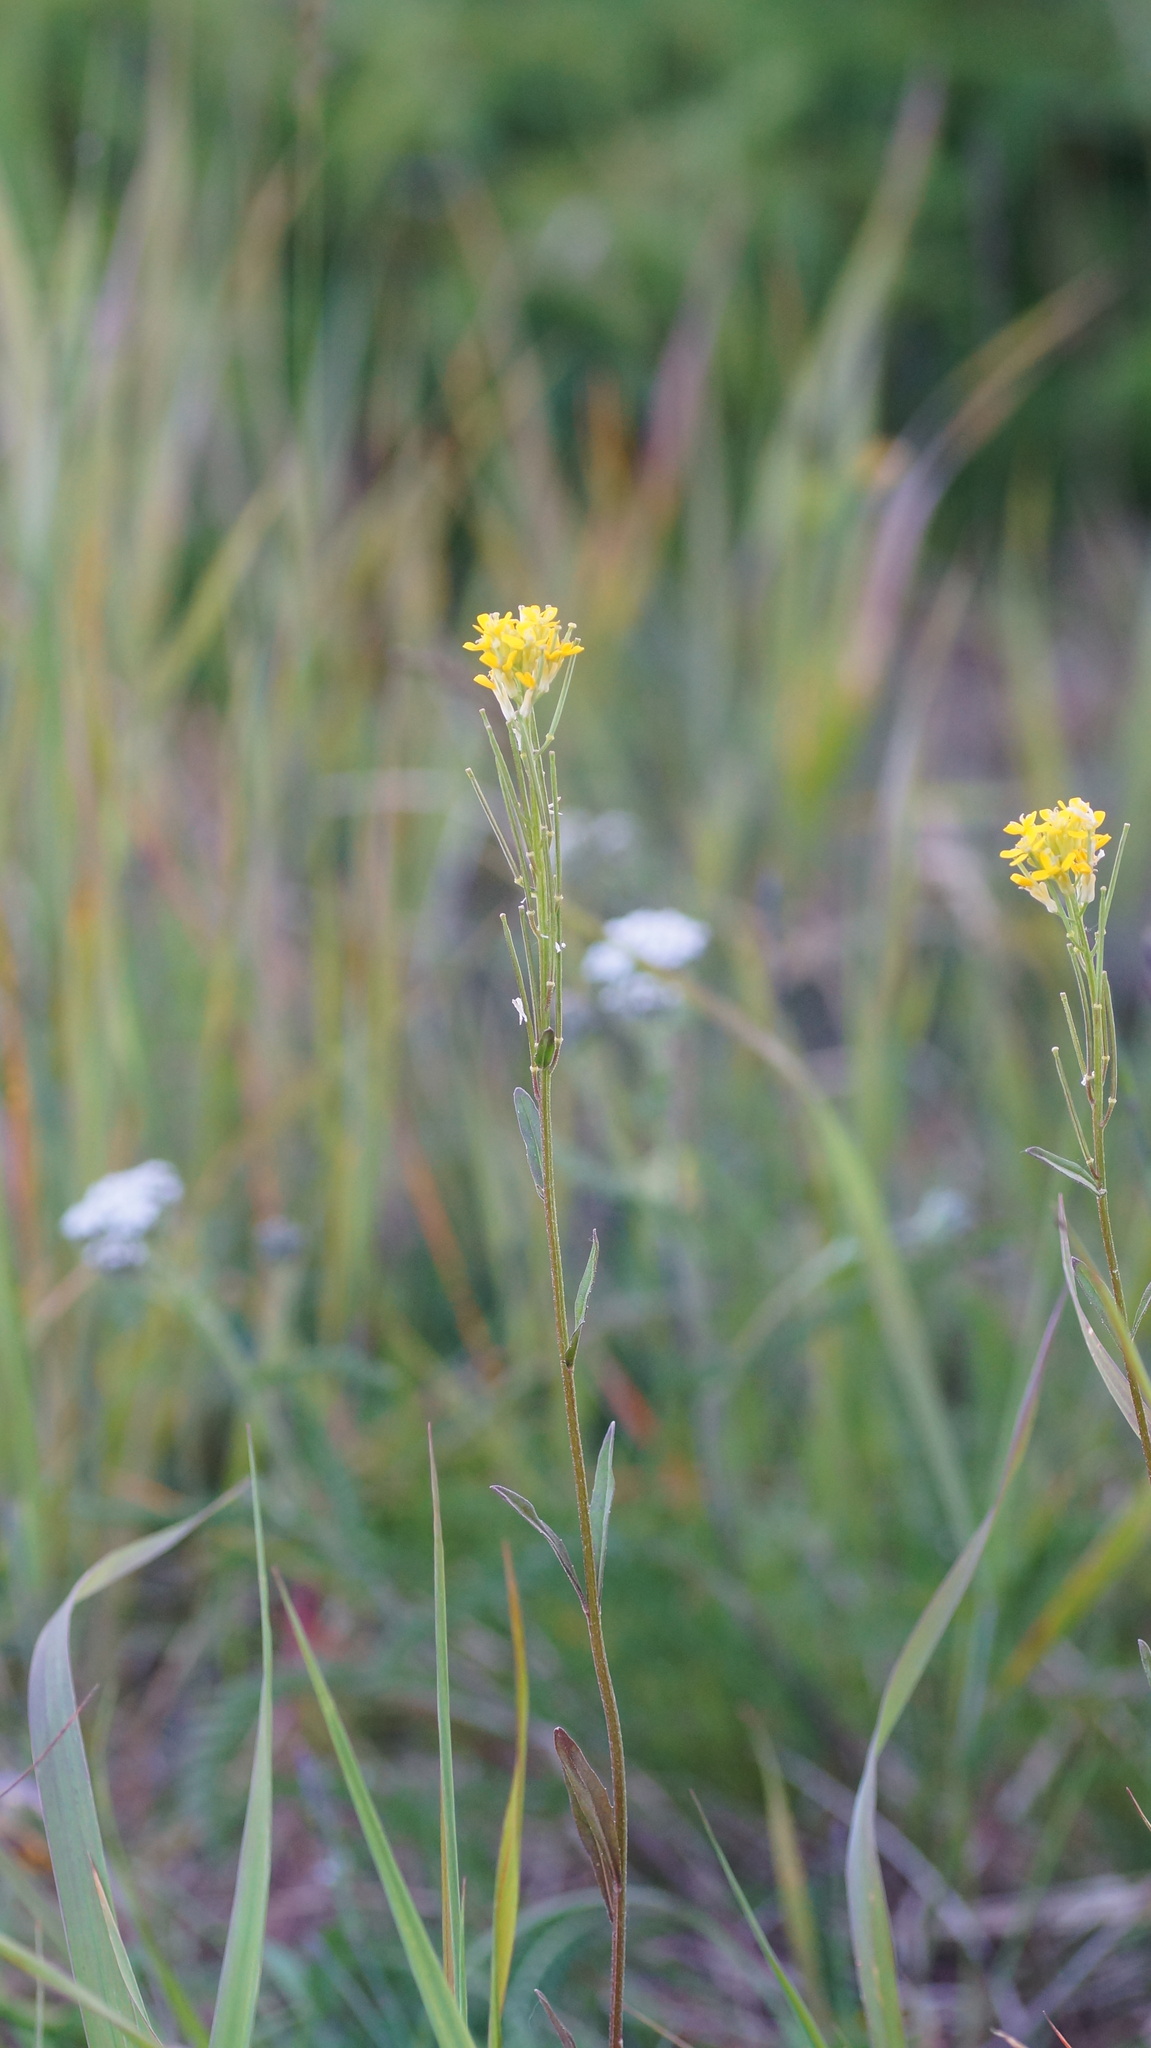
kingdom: Plantae
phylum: Tracheophyta
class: Magnoliopsida
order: Brassicales
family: Brassicaceae
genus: Erysimum
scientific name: Erysimum hieraciifolium
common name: European wallflower
